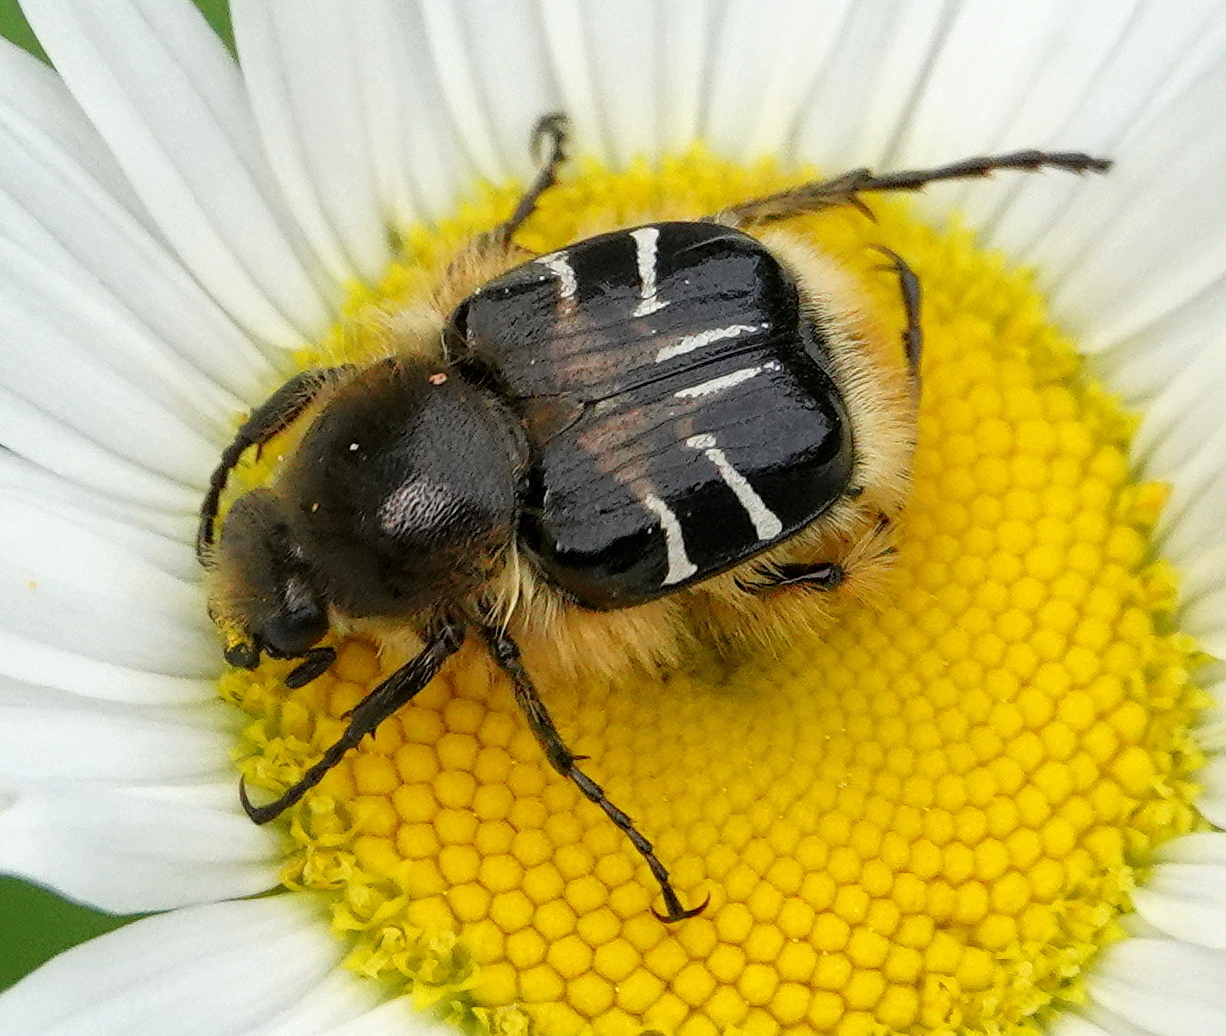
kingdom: Animalia
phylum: Arthropoda
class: Insecta
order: Coleoptera
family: Scarabaeidae
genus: Trichiotinus
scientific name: Trichiotinus assimilis
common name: Bee-mimic beetle
